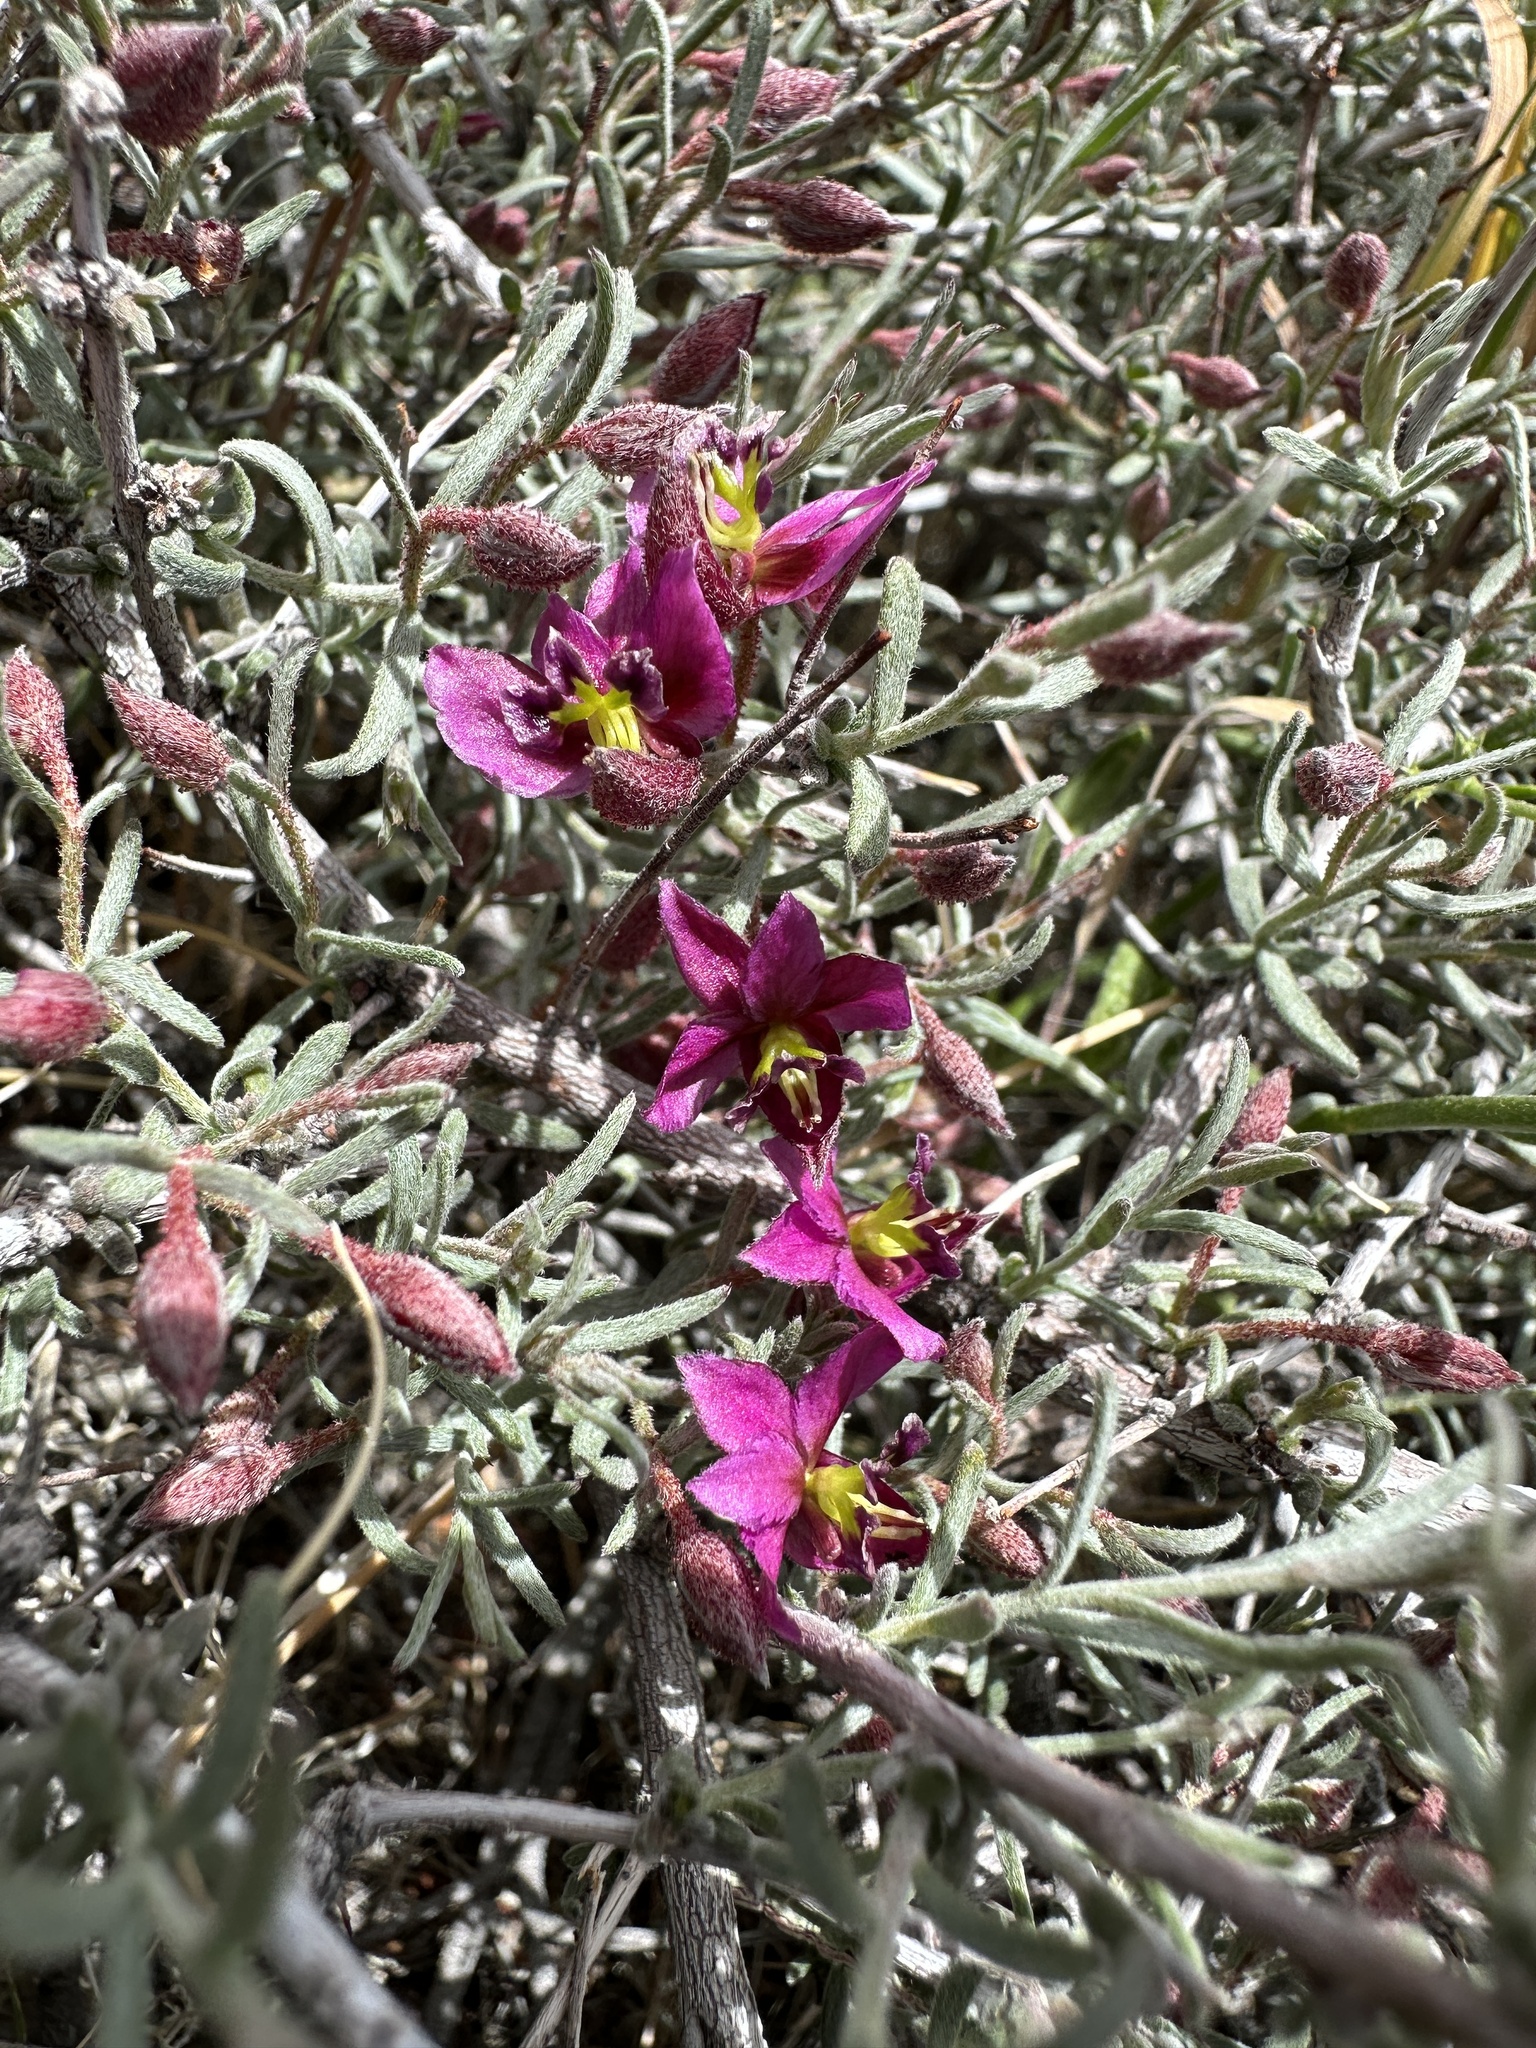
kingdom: Plantae
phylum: Tracheophyta
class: Magnoliopsida
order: Zygophyllales
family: Krameriaceae
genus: Krameria
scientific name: Krameria erecta
